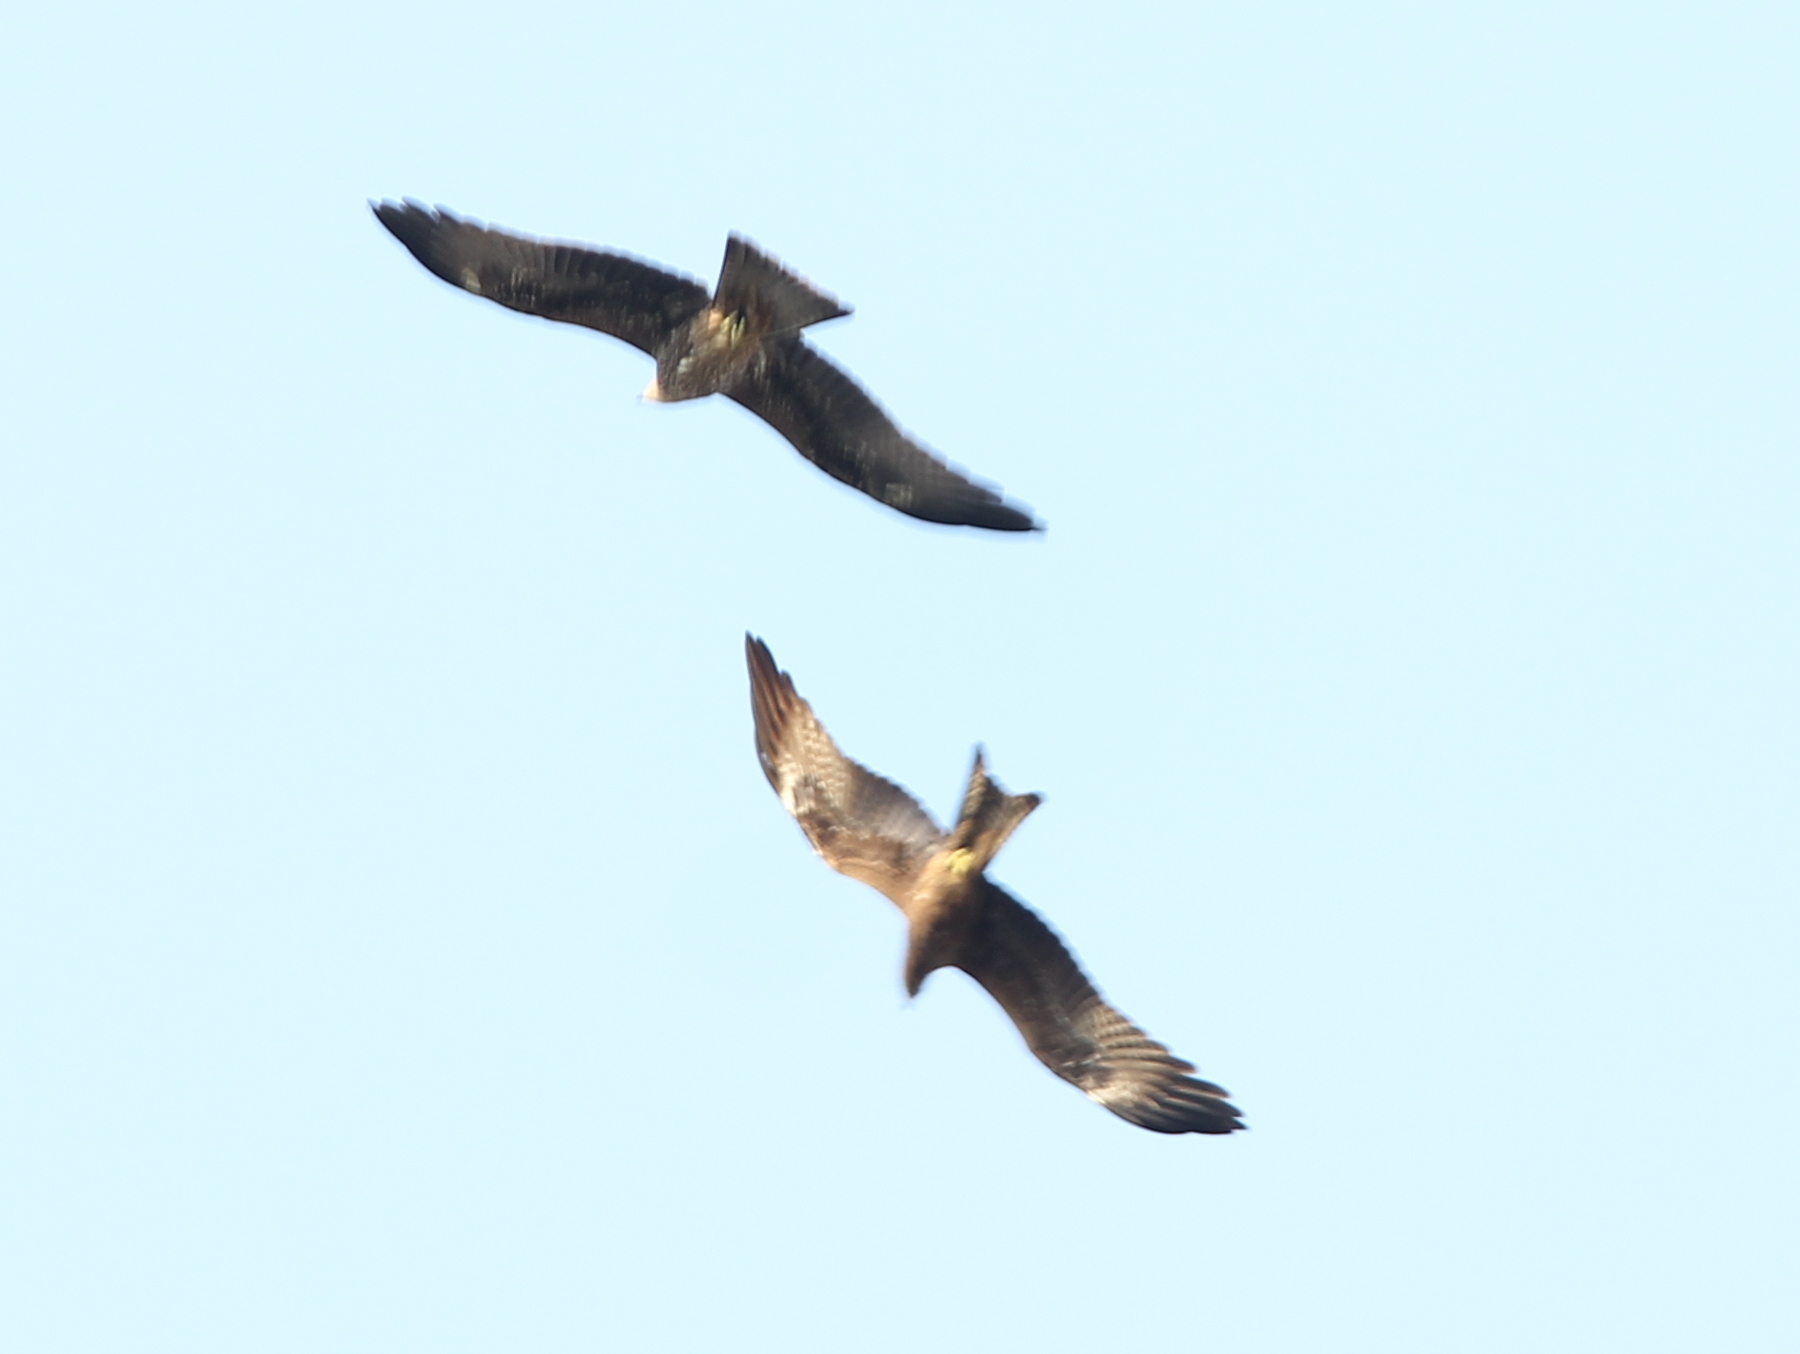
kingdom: Animalia
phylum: Chordata
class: Aves
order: Accipitriformes
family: Accipitridae
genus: Milvus
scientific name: Milvus migrans
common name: Black kite
